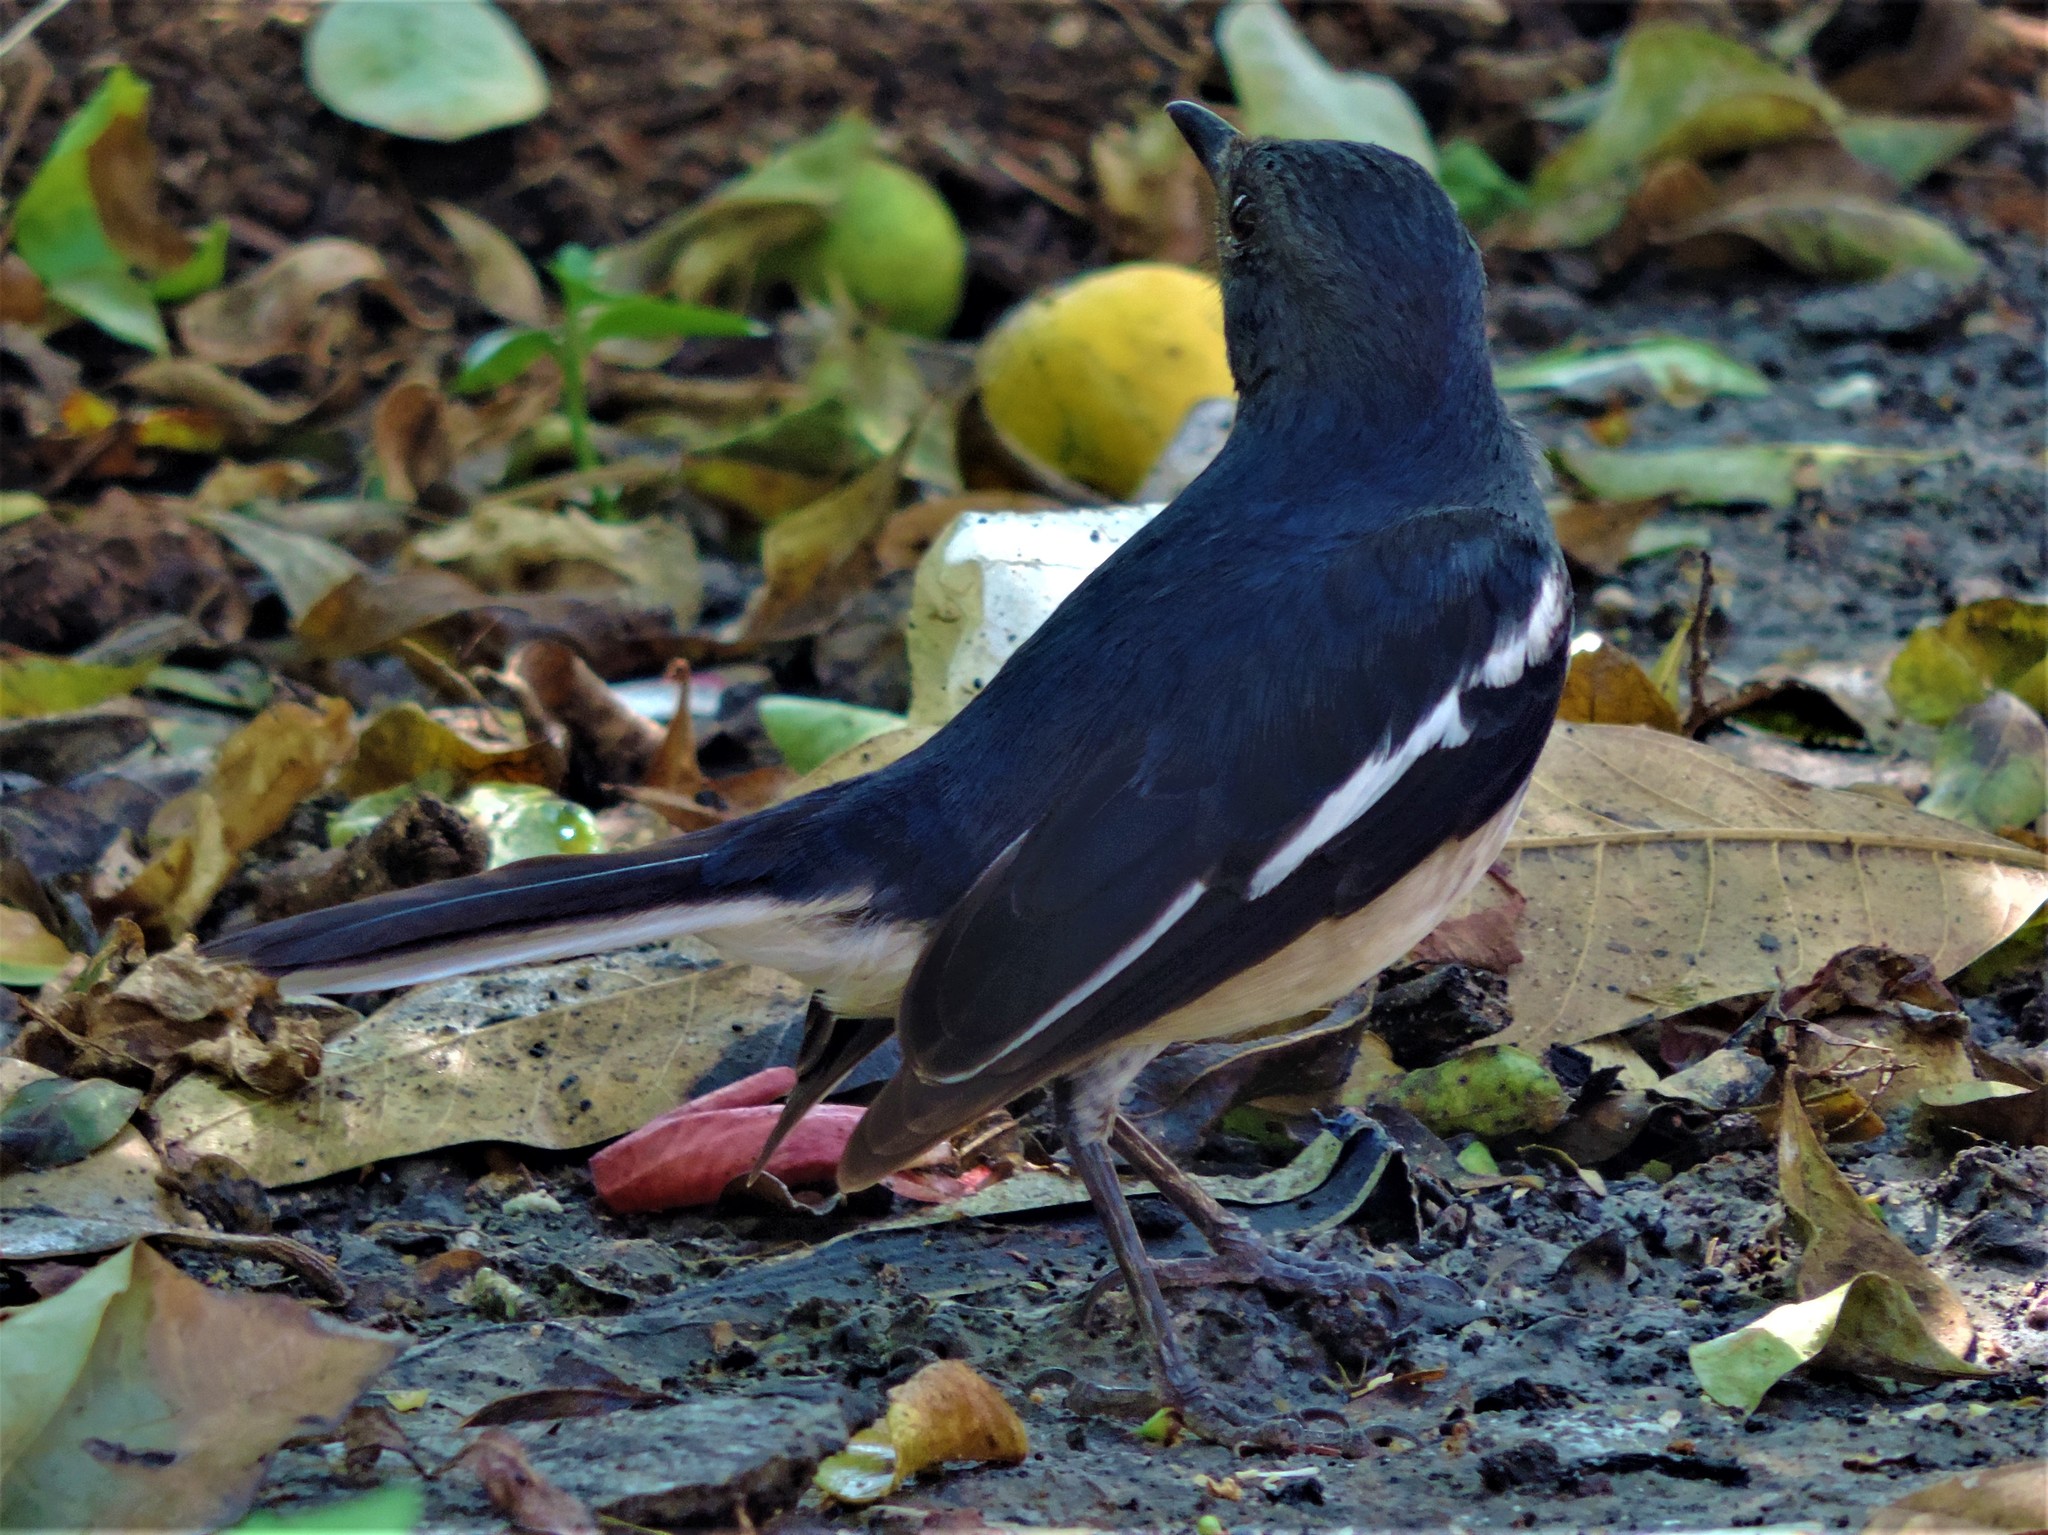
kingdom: Animalia
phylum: Chordata
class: Aves
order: Passeriformes
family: Muscicapidae
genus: Copsychus
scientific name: Copsychus saularis
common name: Oriental magpie-robin
